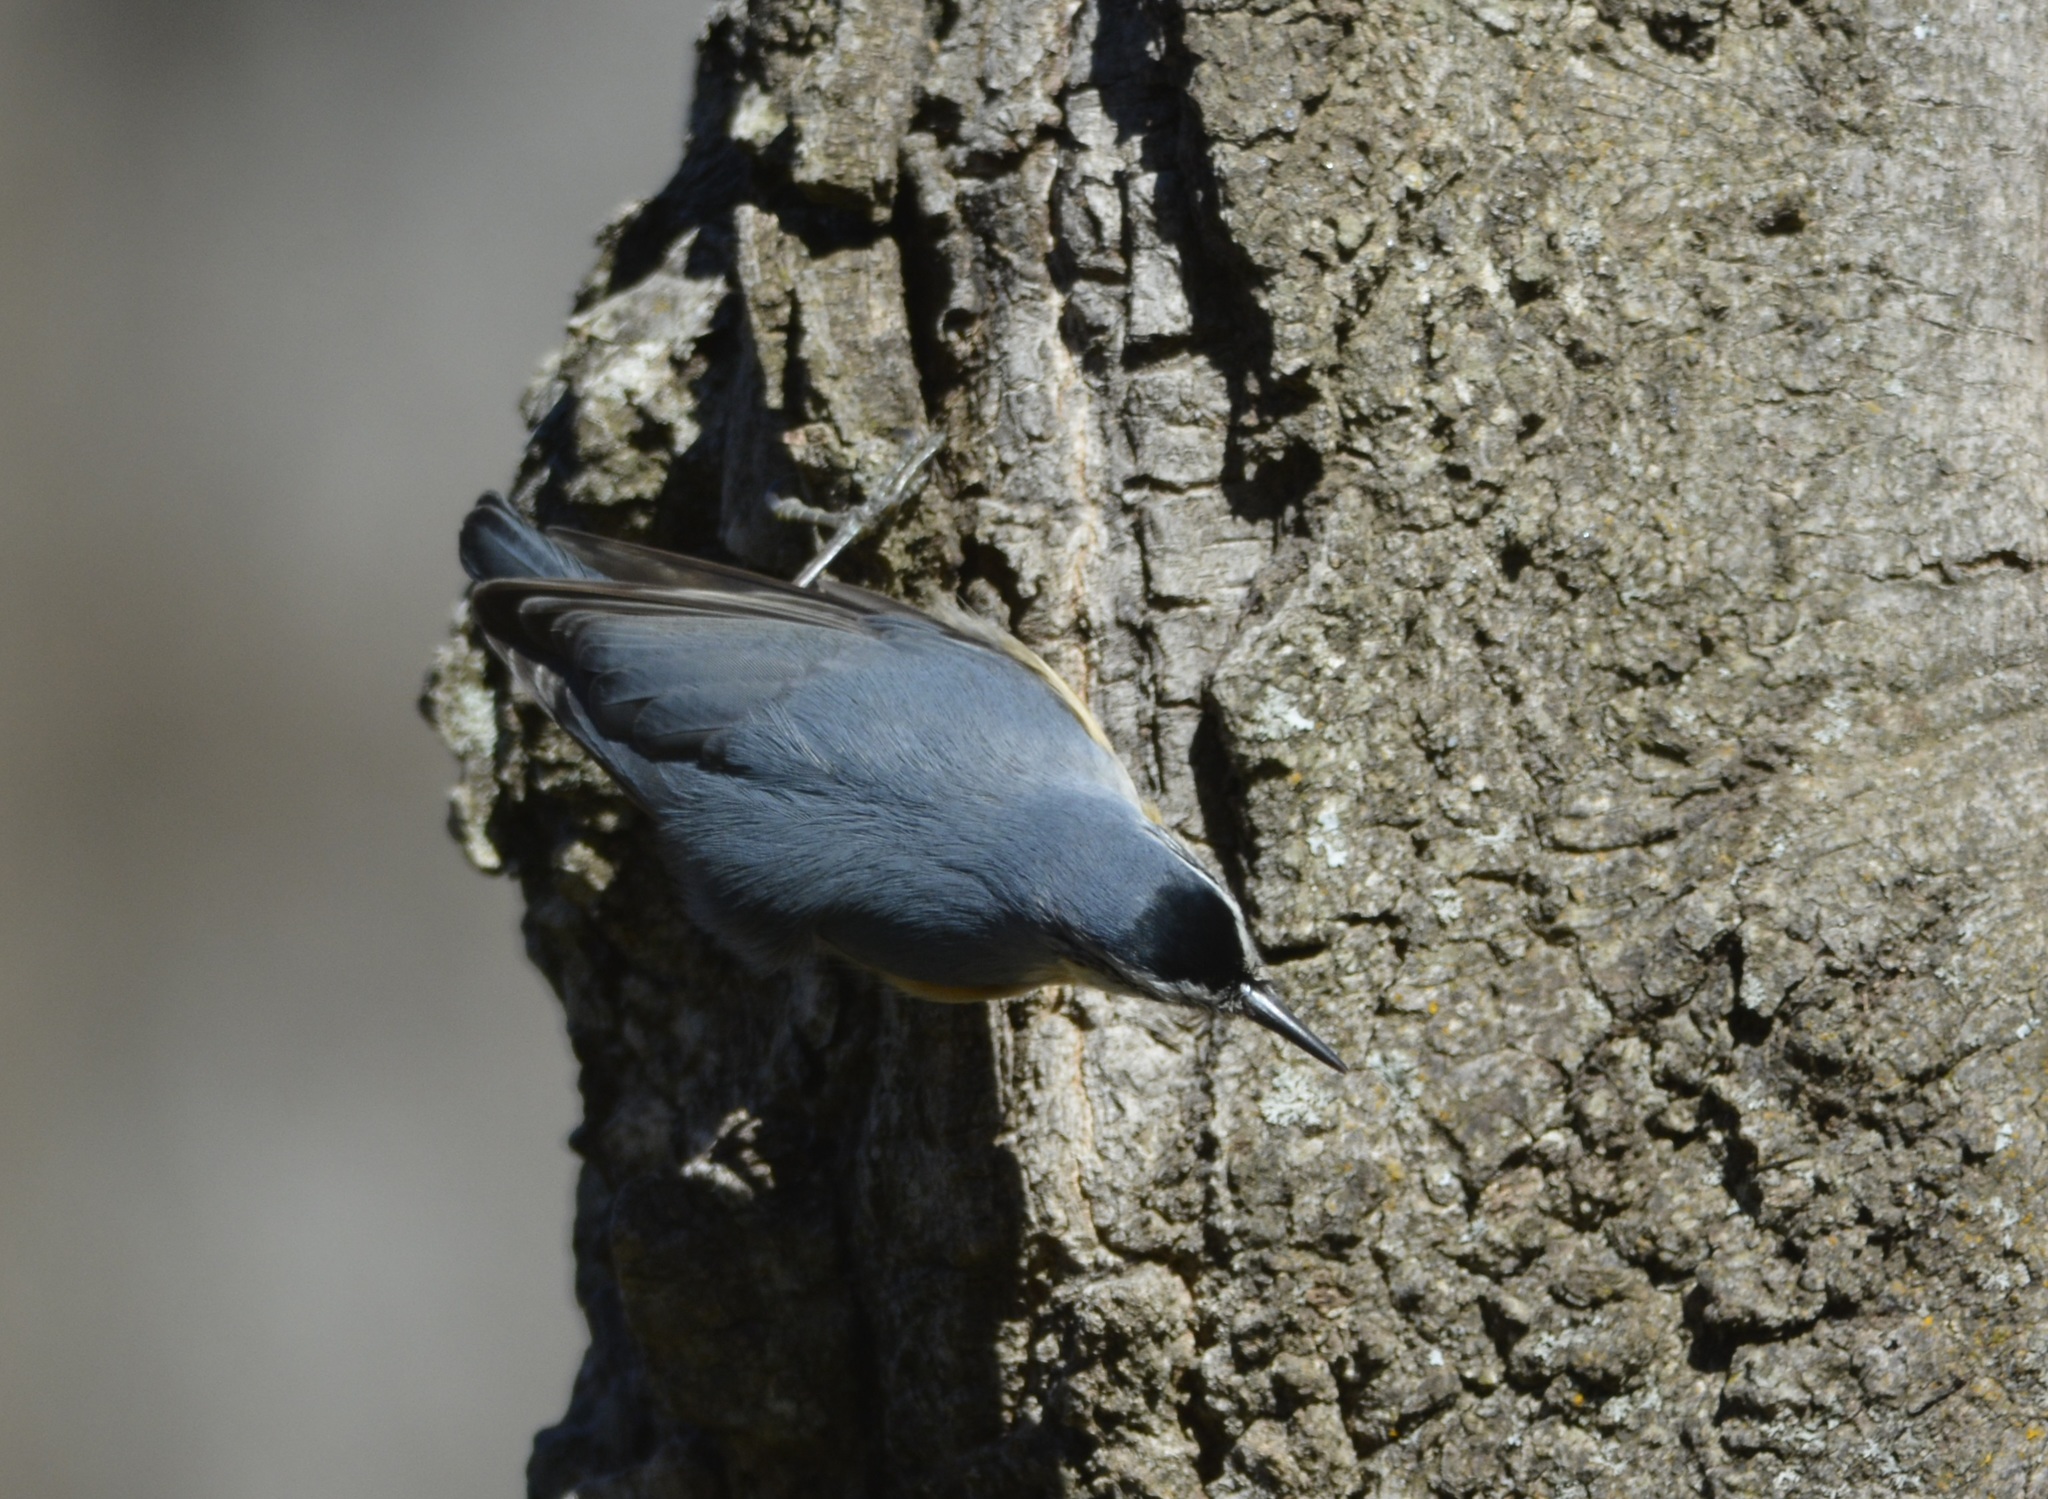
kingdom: Animalia
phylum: Chordata
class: Aves
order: Passeriformes
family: Sittidae
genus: Sitta
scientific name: Sitta ledanti
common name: Algerian nuthatch
